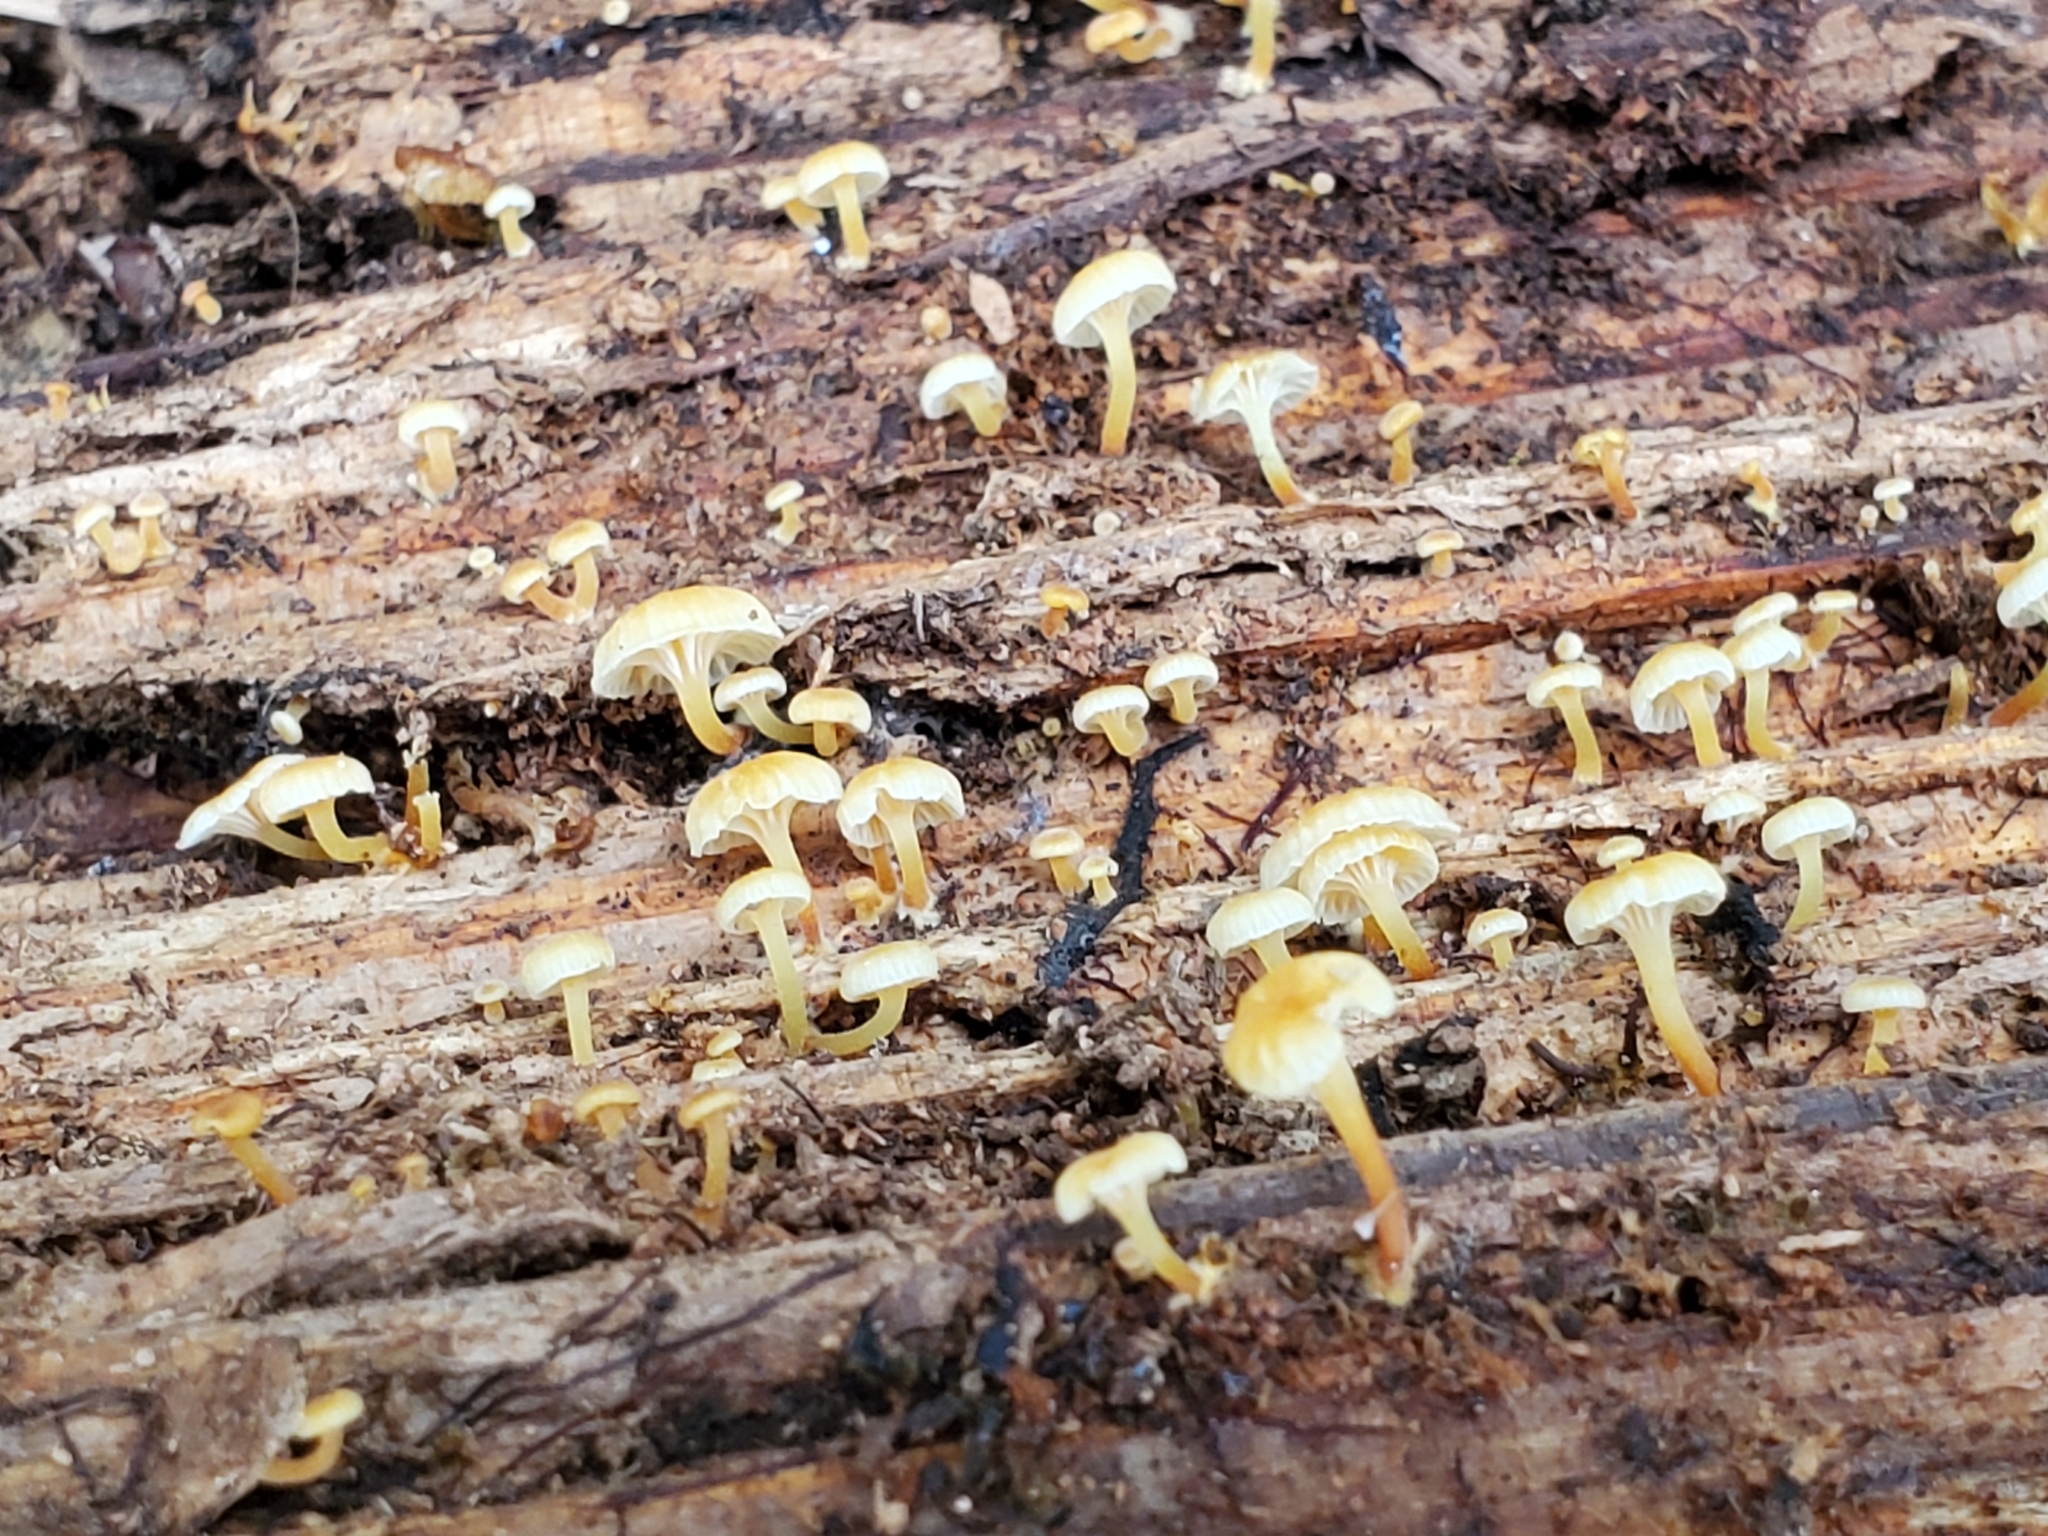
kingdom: Fungi
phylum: Basidiomycota
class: Agaricomycetes
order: Agaricales
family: Hygrophoraceae
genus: Lichenomphalia
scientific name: Lichenomphalia
